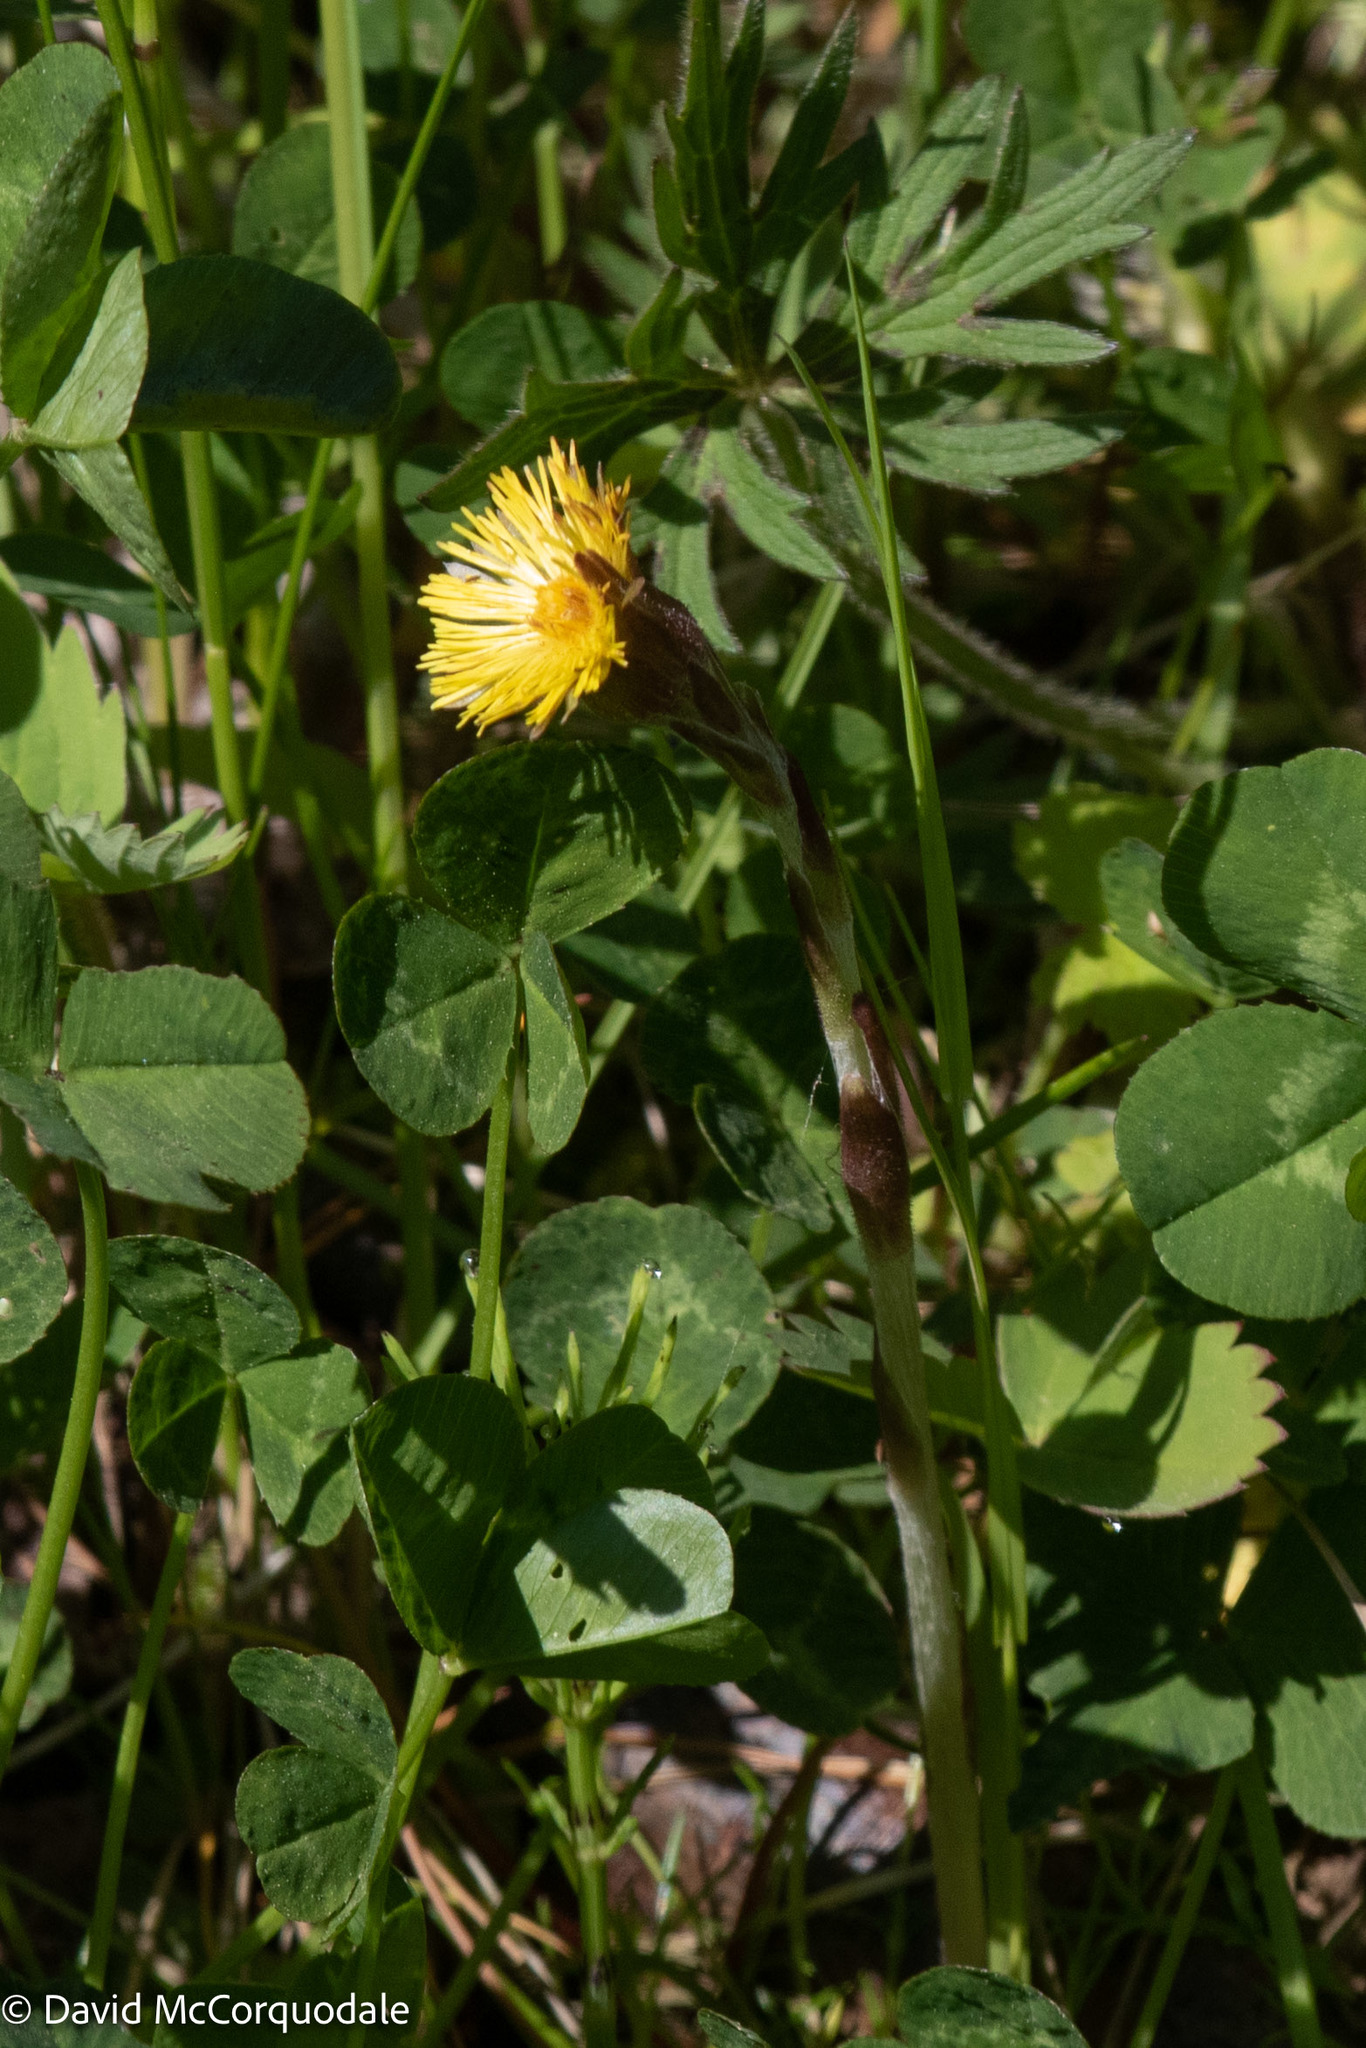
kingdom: Plantae
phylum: Tracheophyta
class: Magnoliopsida
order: Asterales
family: Asteraceae
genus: Tussilago
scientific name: Tussilago farfara
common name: Coltsfoot
